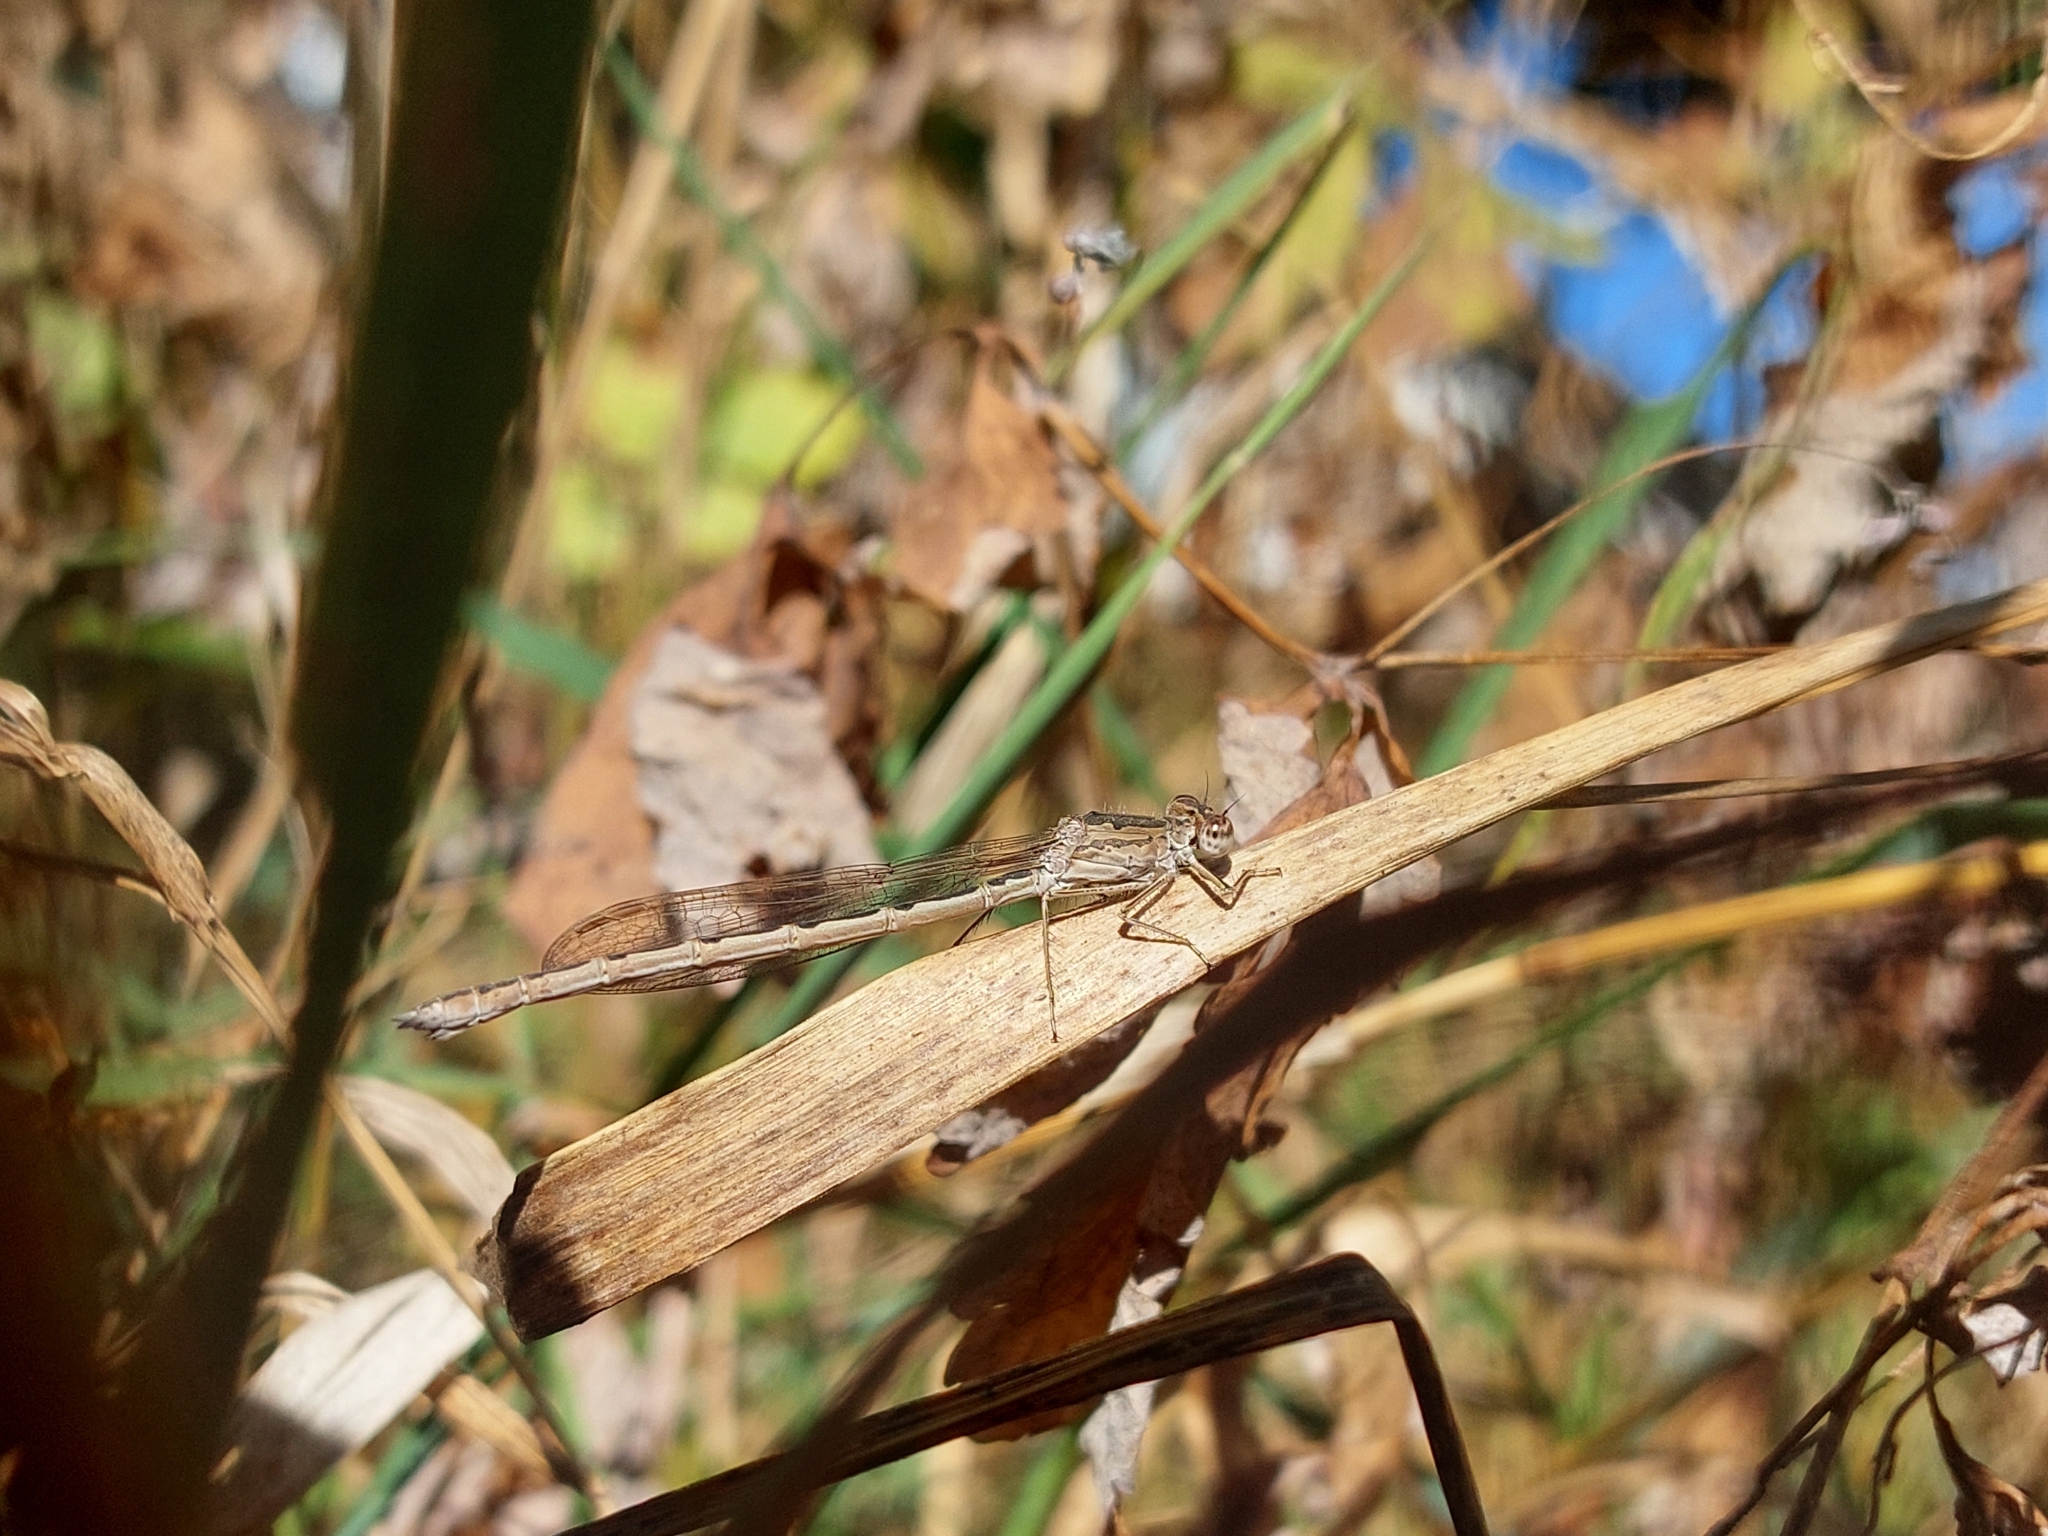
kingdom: Animalia
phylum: Arthropoda
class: Insecta
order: Odonata
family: Lestidae
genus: Sympecma
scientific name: Sympecma paedisca
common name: Siberian winter damsel
